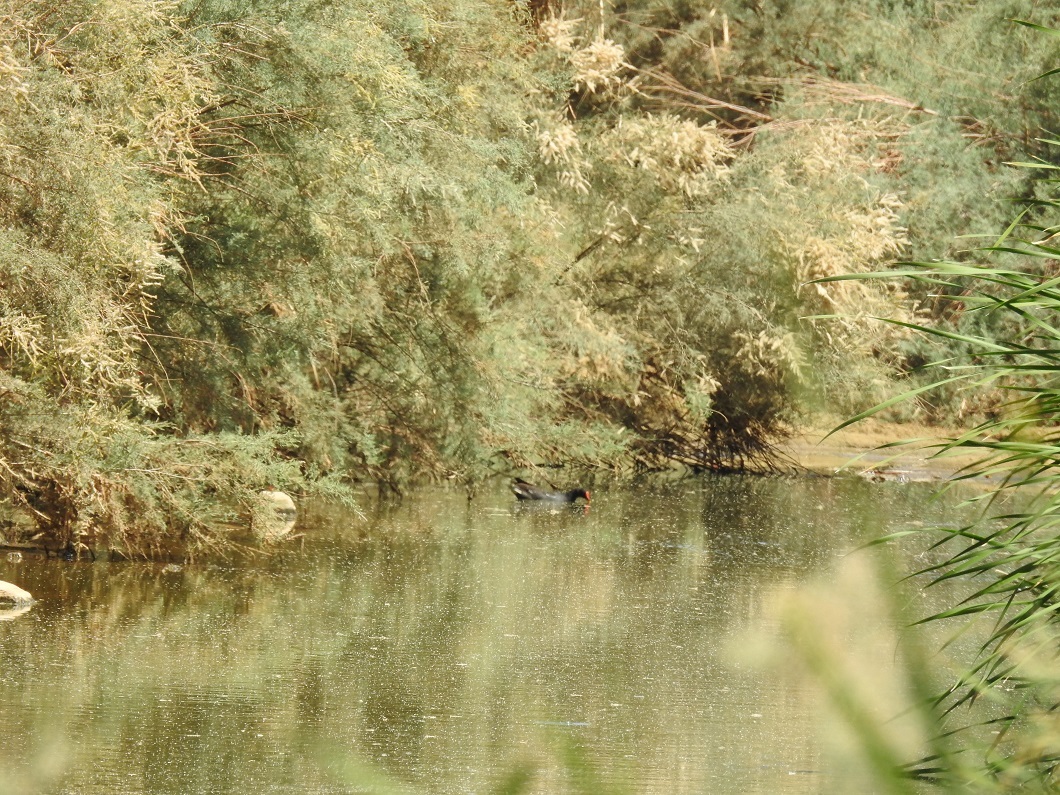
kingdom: Animalia
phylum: Chordata
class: Aves
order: Gruiformes
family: Rallidae
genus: Gallinula
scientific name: Gallinula chloropus
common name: Common moorhen
